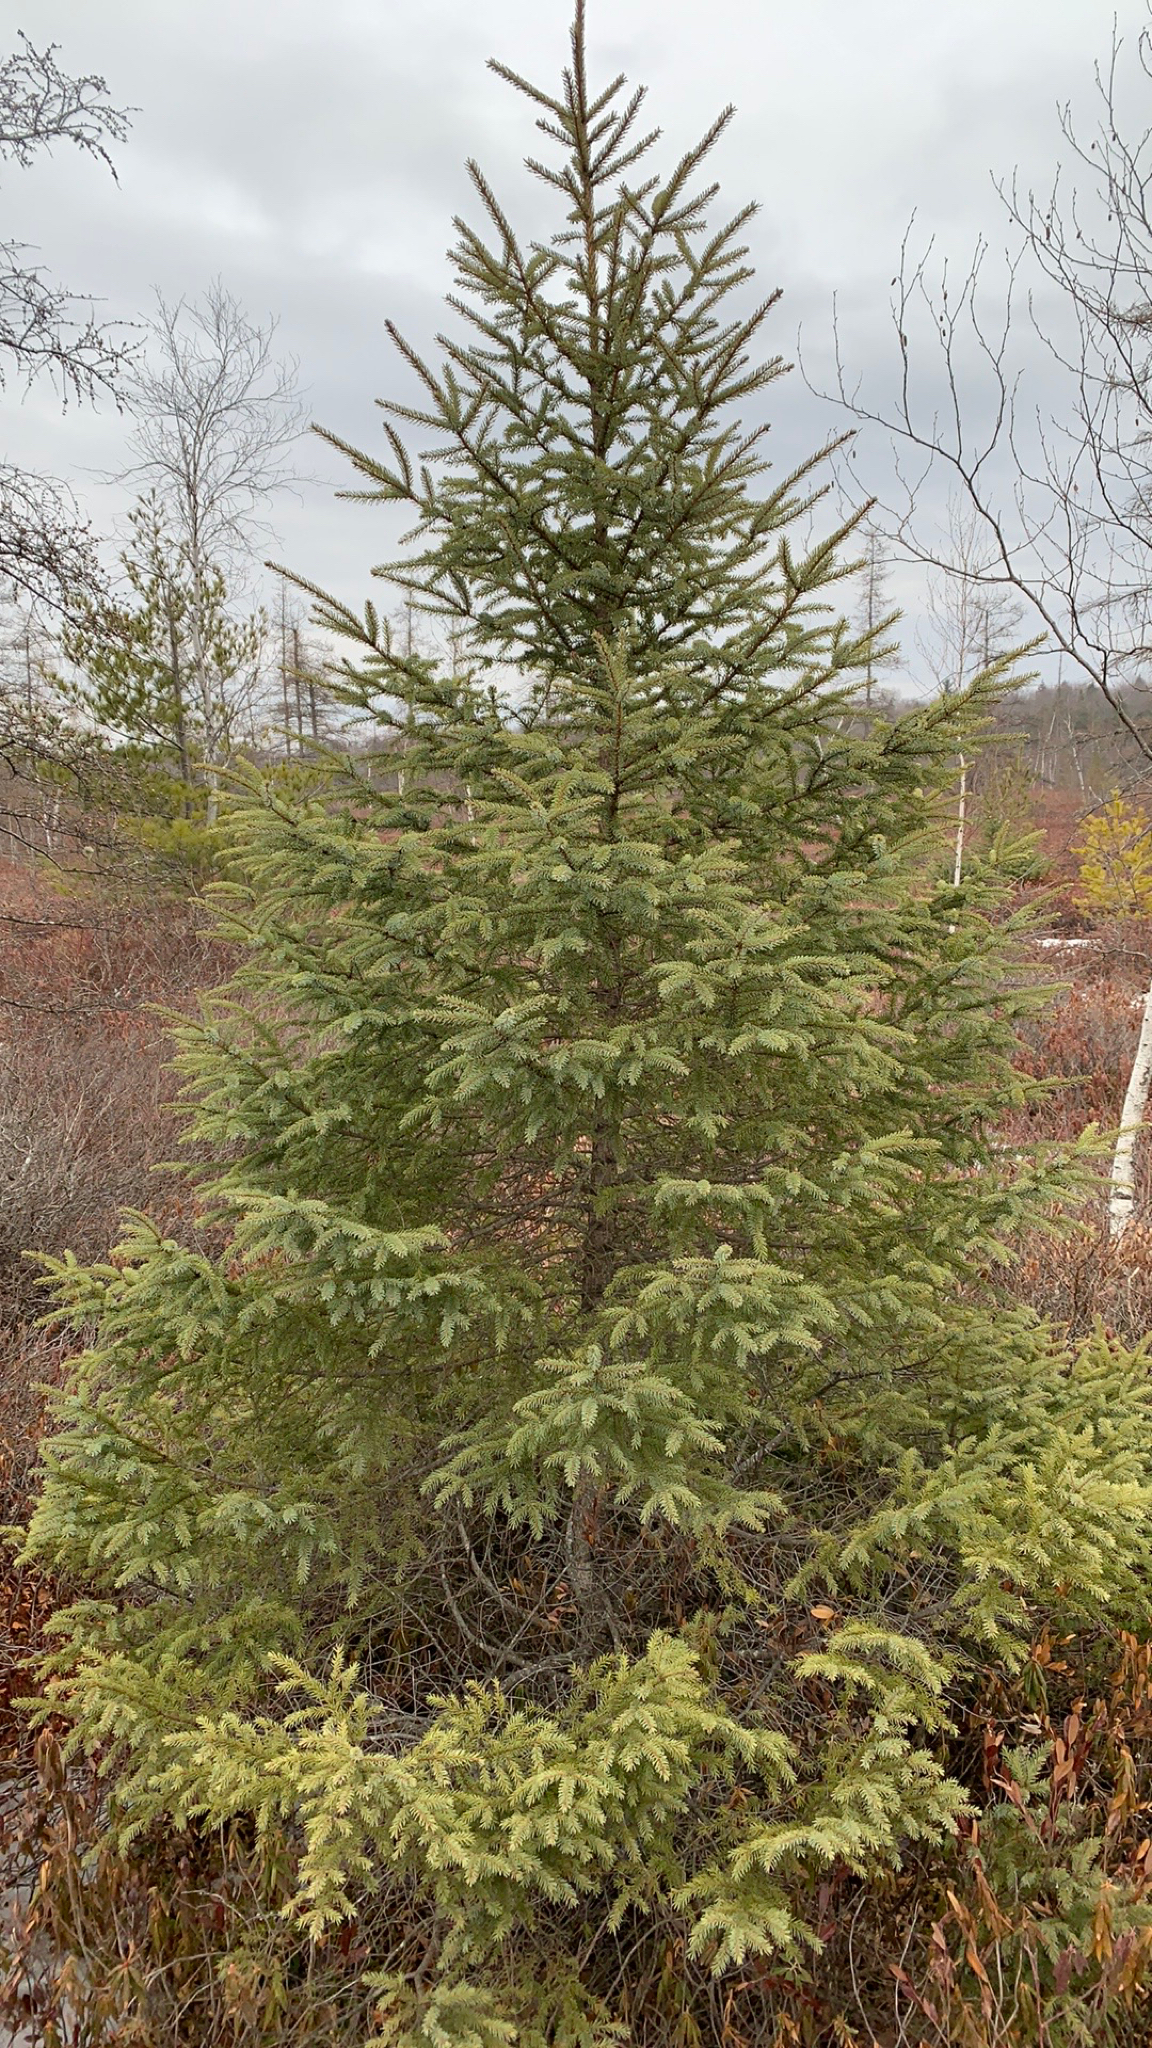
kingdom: Plantae
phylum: Tracheophyta
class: Pinopsida
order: Pinales
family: Pinaceae
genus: Picea
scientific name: Picea mariana
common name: Black spruce
